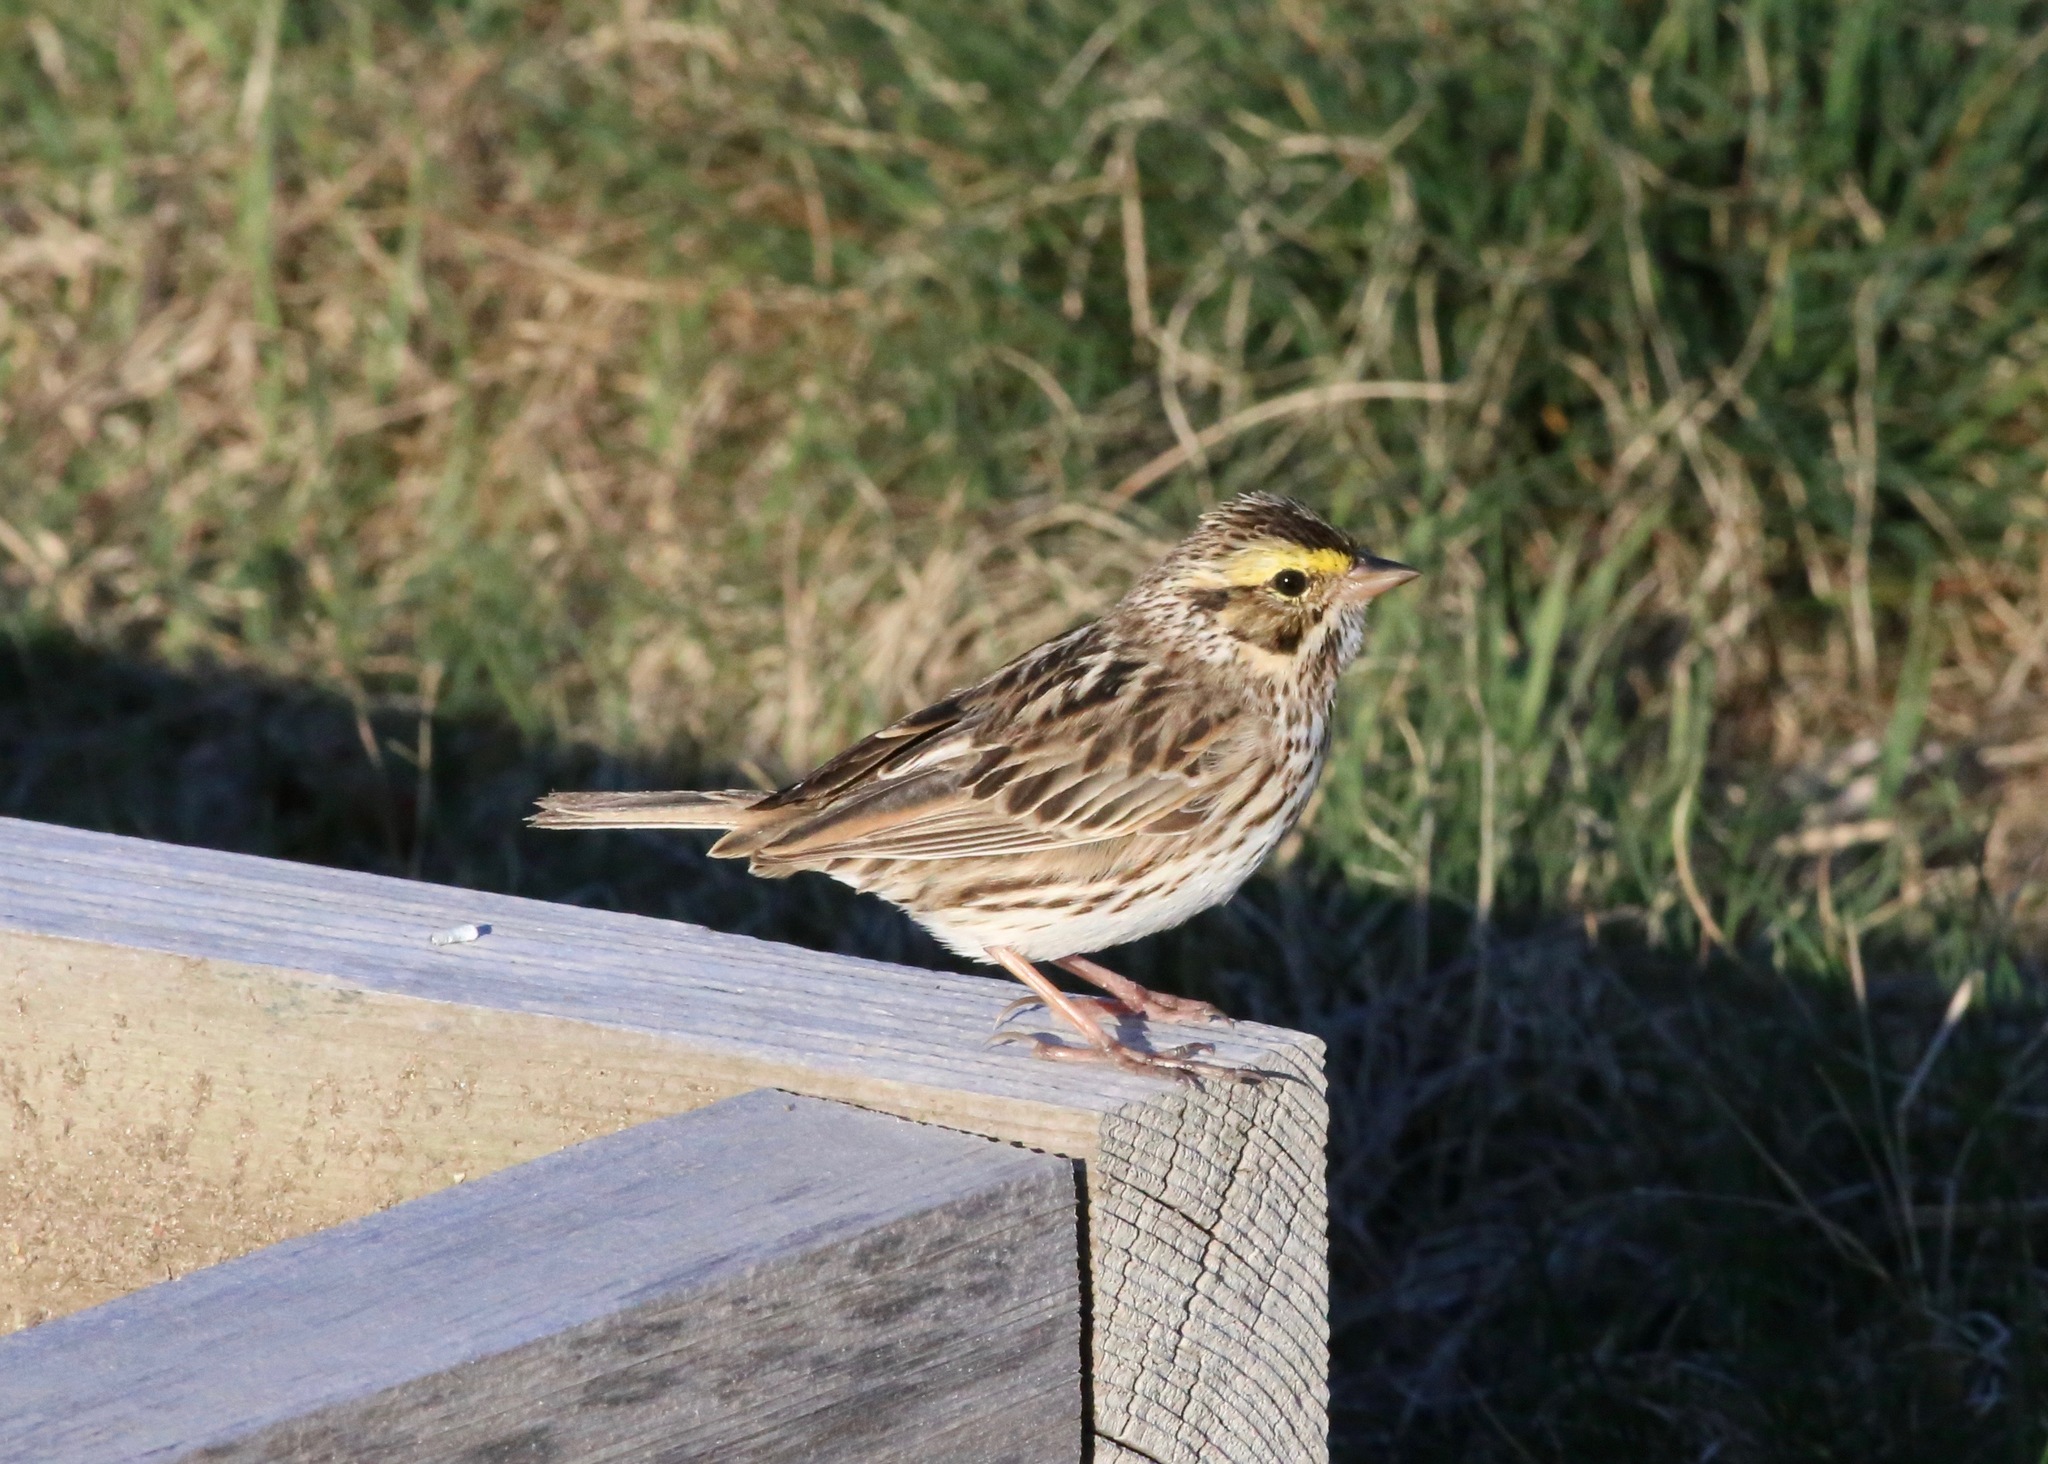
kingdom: Animalia
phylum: Chordata
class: Aves
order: Passeriformes
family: Passerellidae
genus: Passerculus
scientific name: Passerculus sandwichensis
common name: Savannah sparrow
